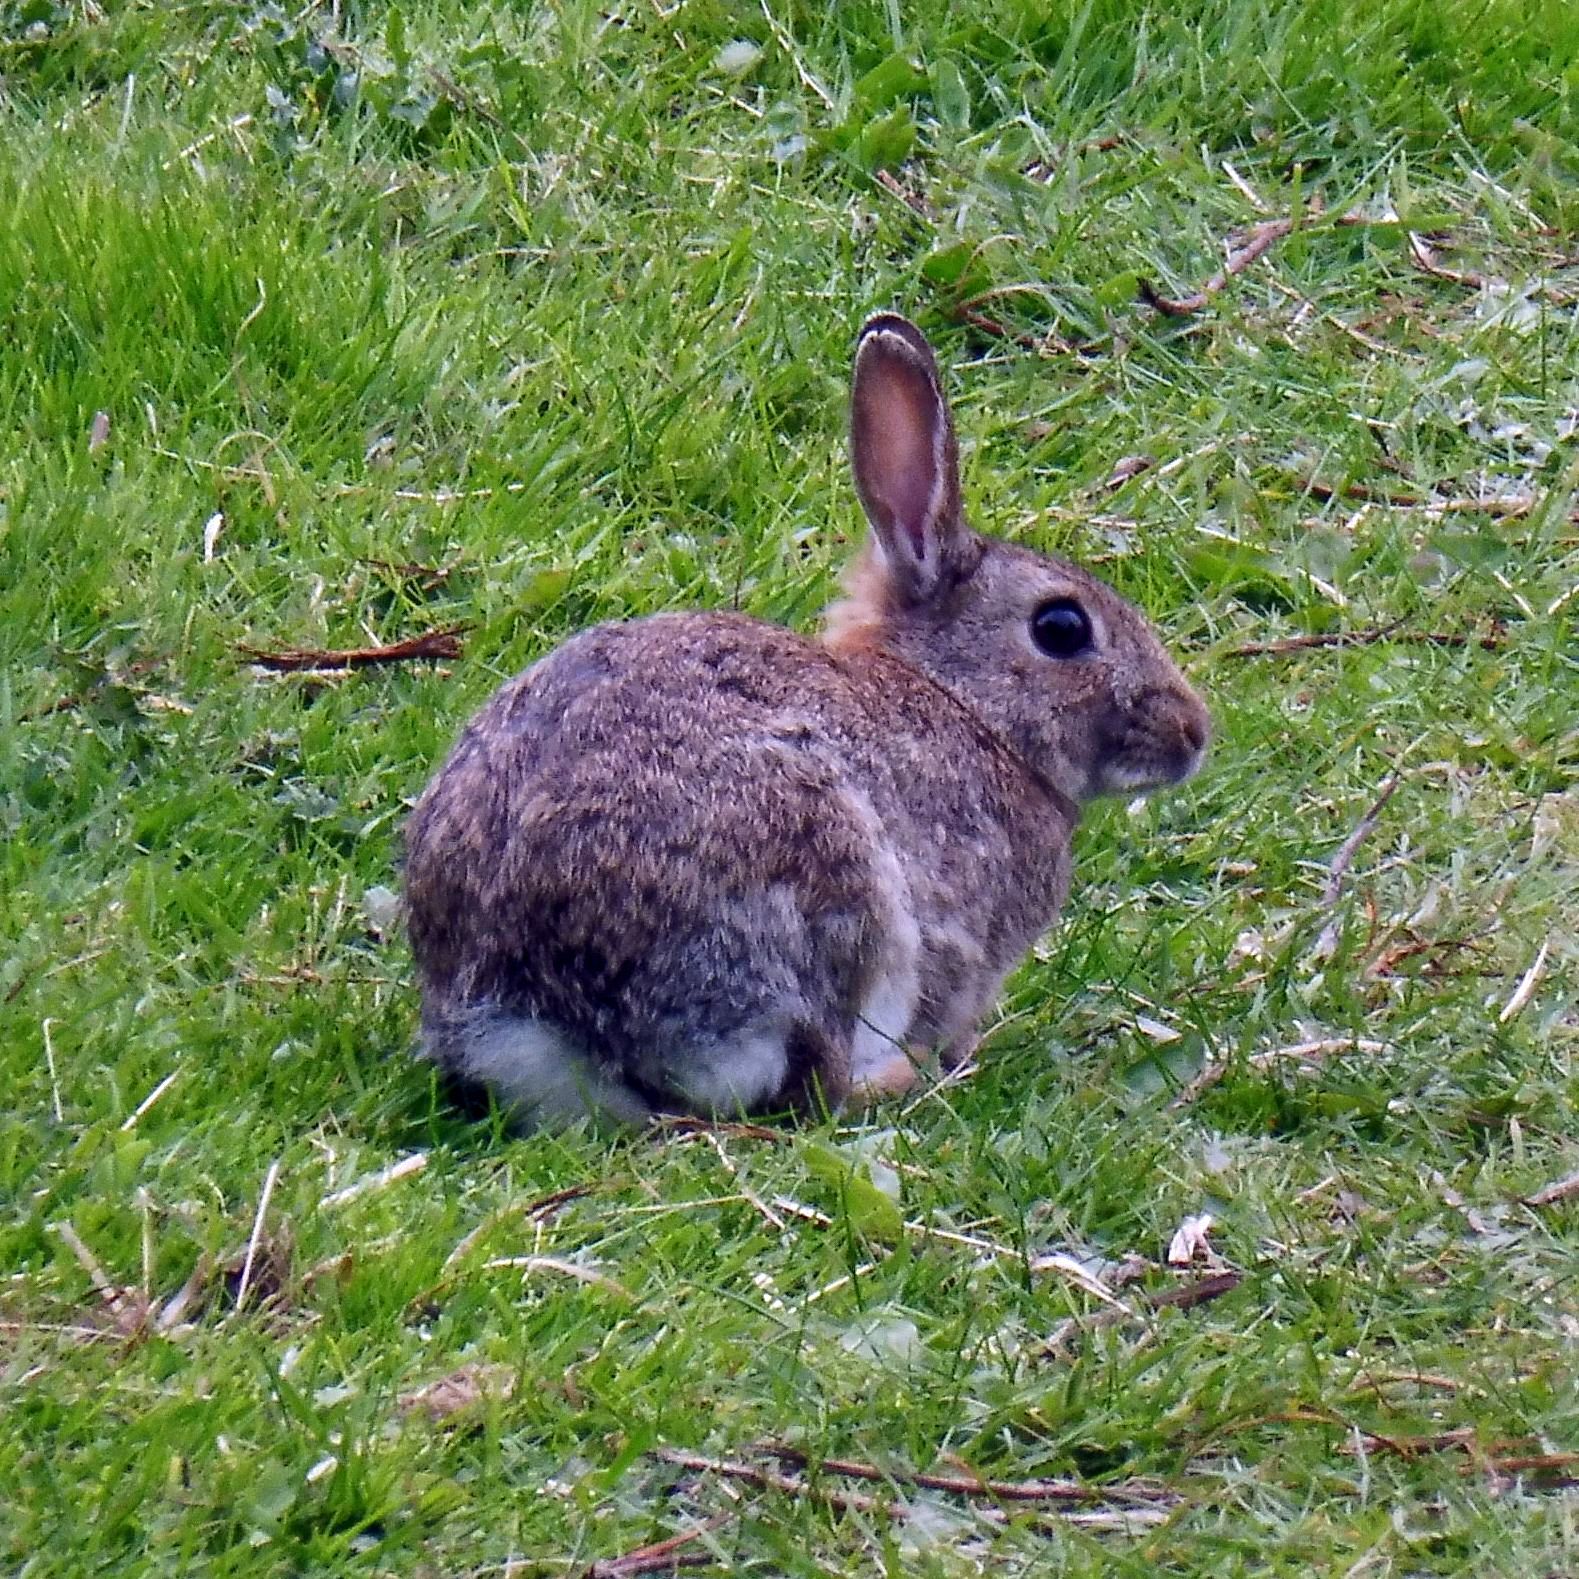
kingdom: Animalia
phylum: Chordata
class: Mammalia
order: Lagomorpha
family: Leporidae
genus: Oryctolagus
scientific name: Oryctolagus cuniculus
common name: European rabbit
